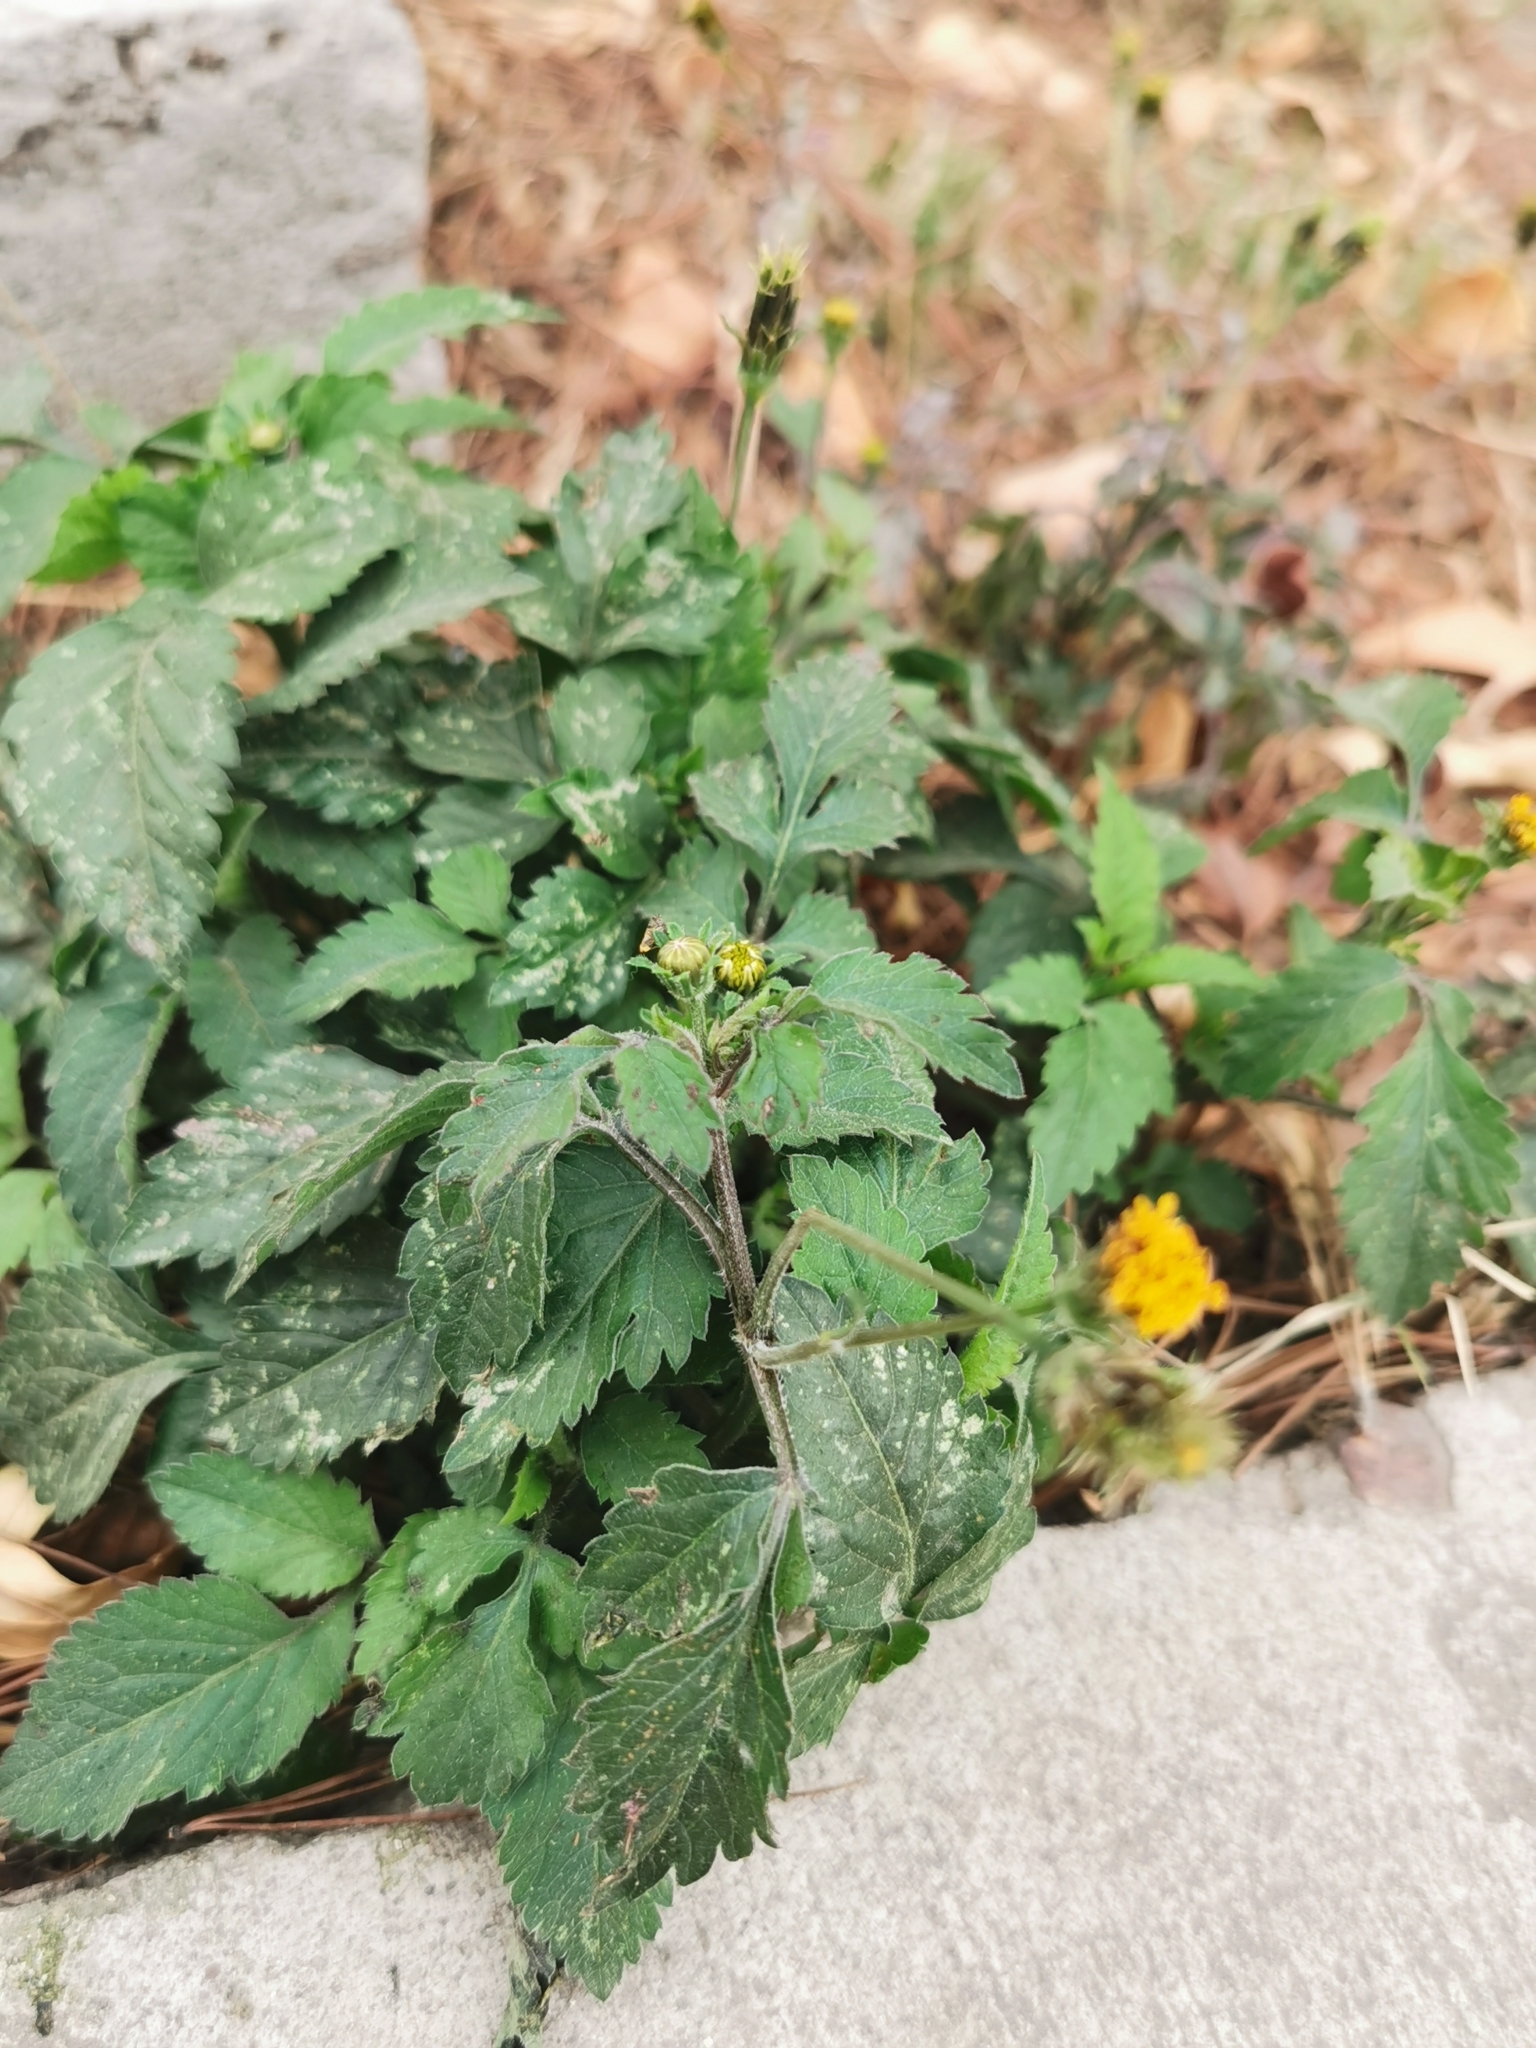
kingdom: Plantae
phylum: Tracheophyta
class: Magnoliopsida
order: Asterales
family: Asteraceae
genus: Bidens
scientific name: Bidens pilosa
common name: Black-jack
